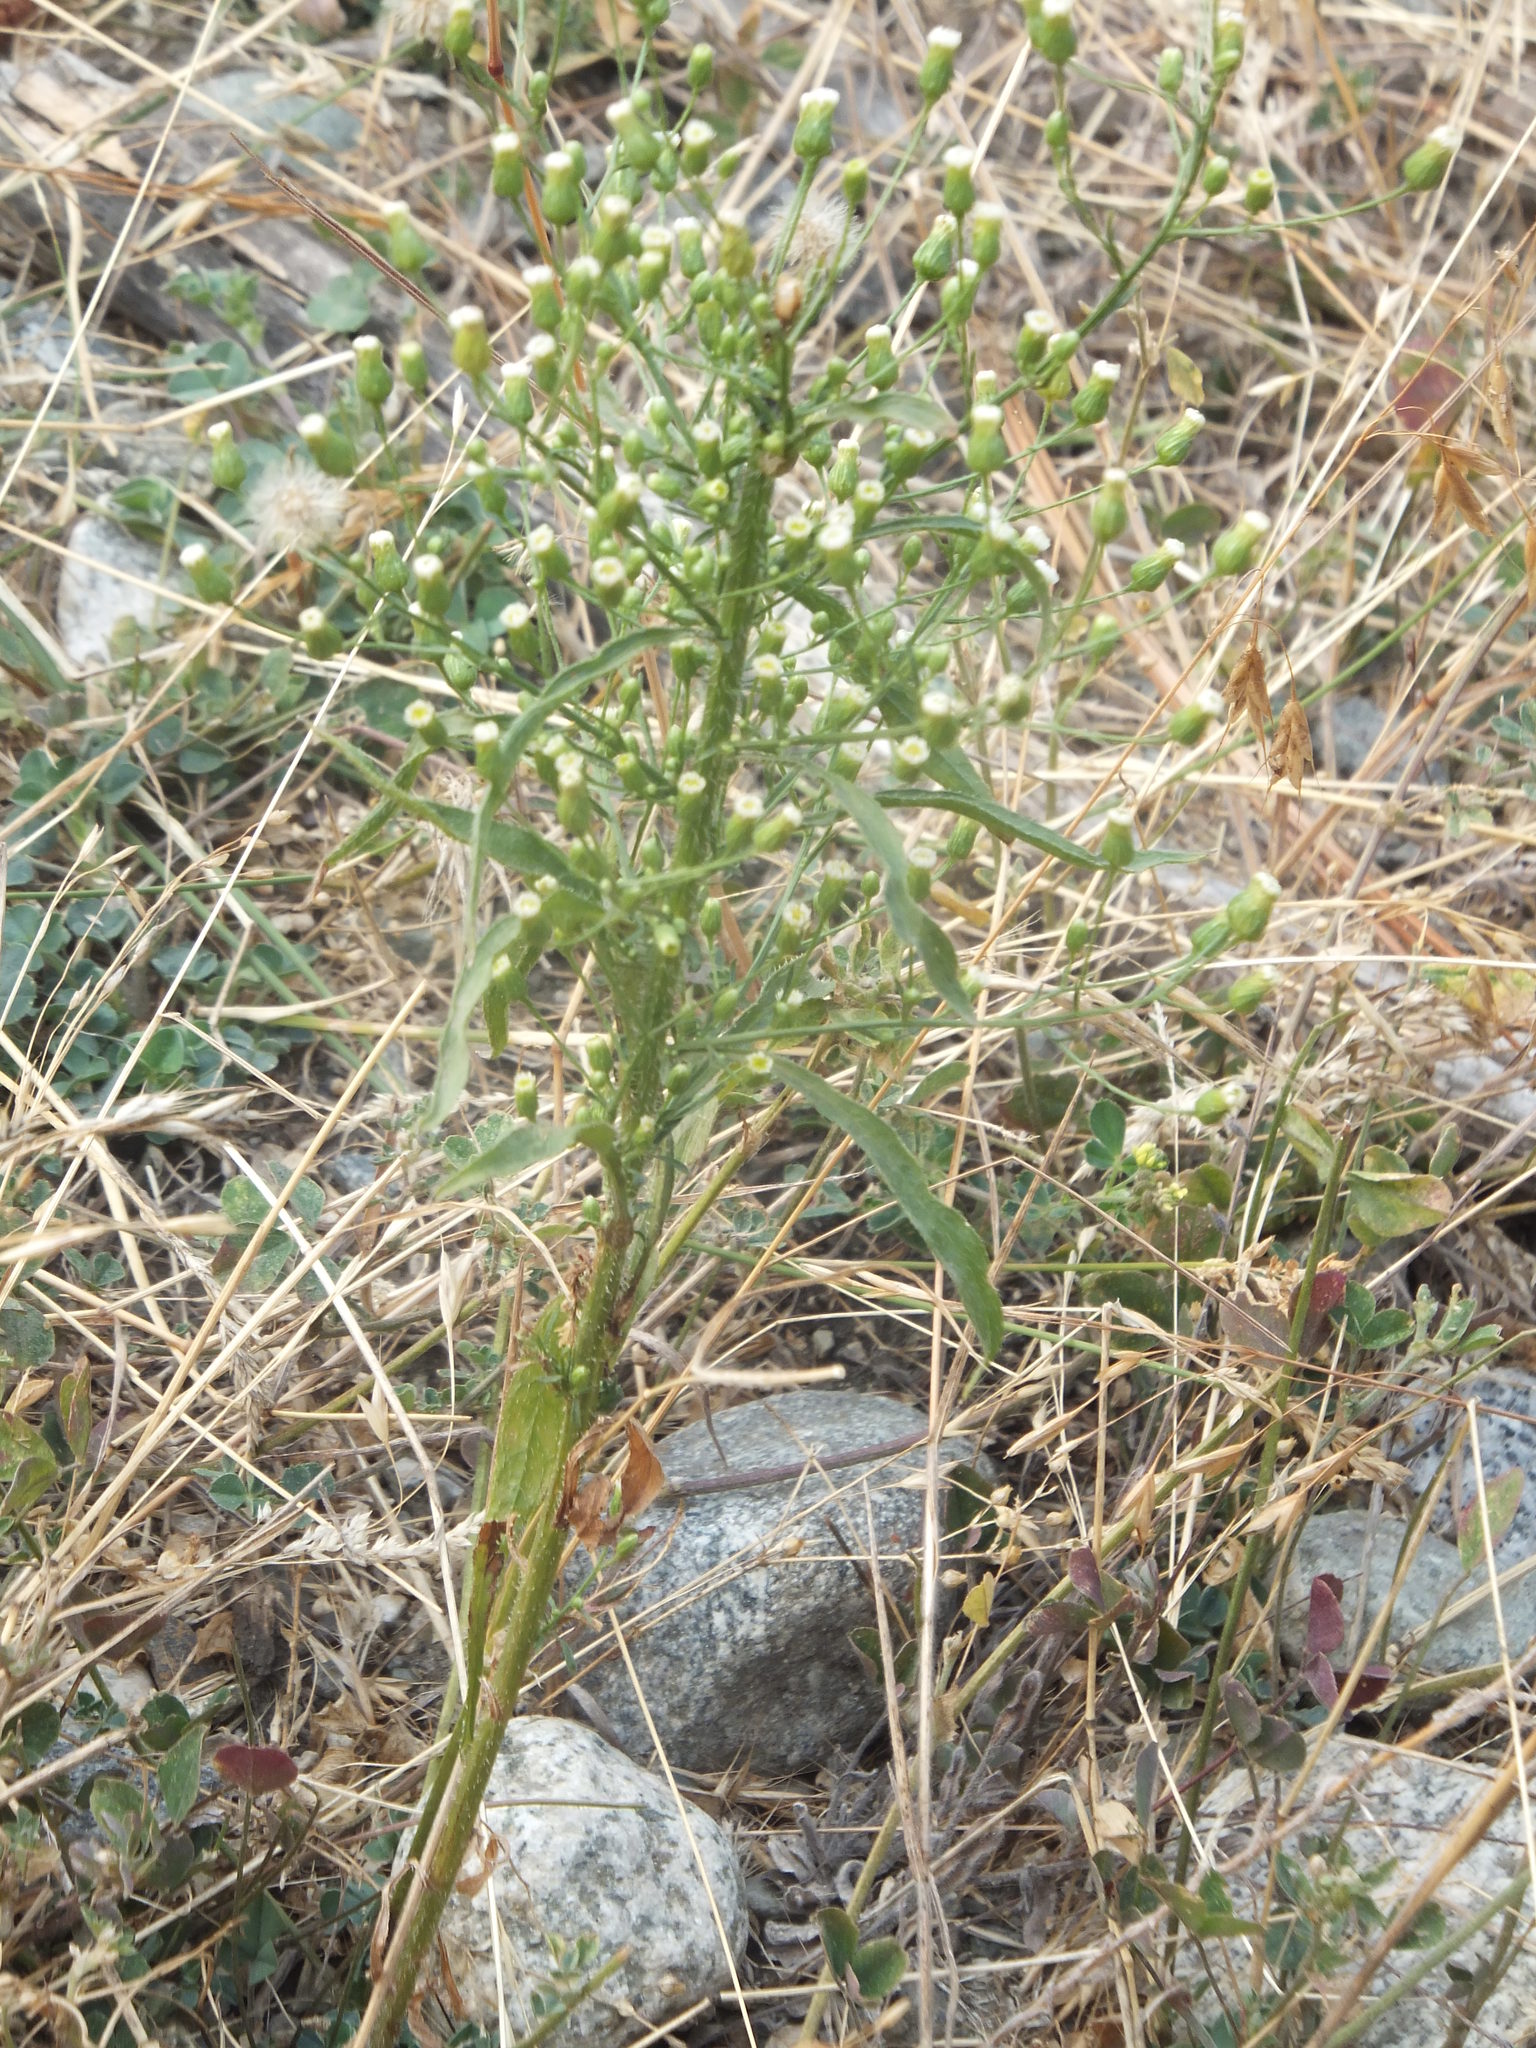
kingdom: Plantae
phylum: Tracheophyta
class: Magnoliopsida
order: Asterales
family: Asteraceae
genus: Erigeron
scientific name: Erigeron canadensis
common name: Canadian fleabane
